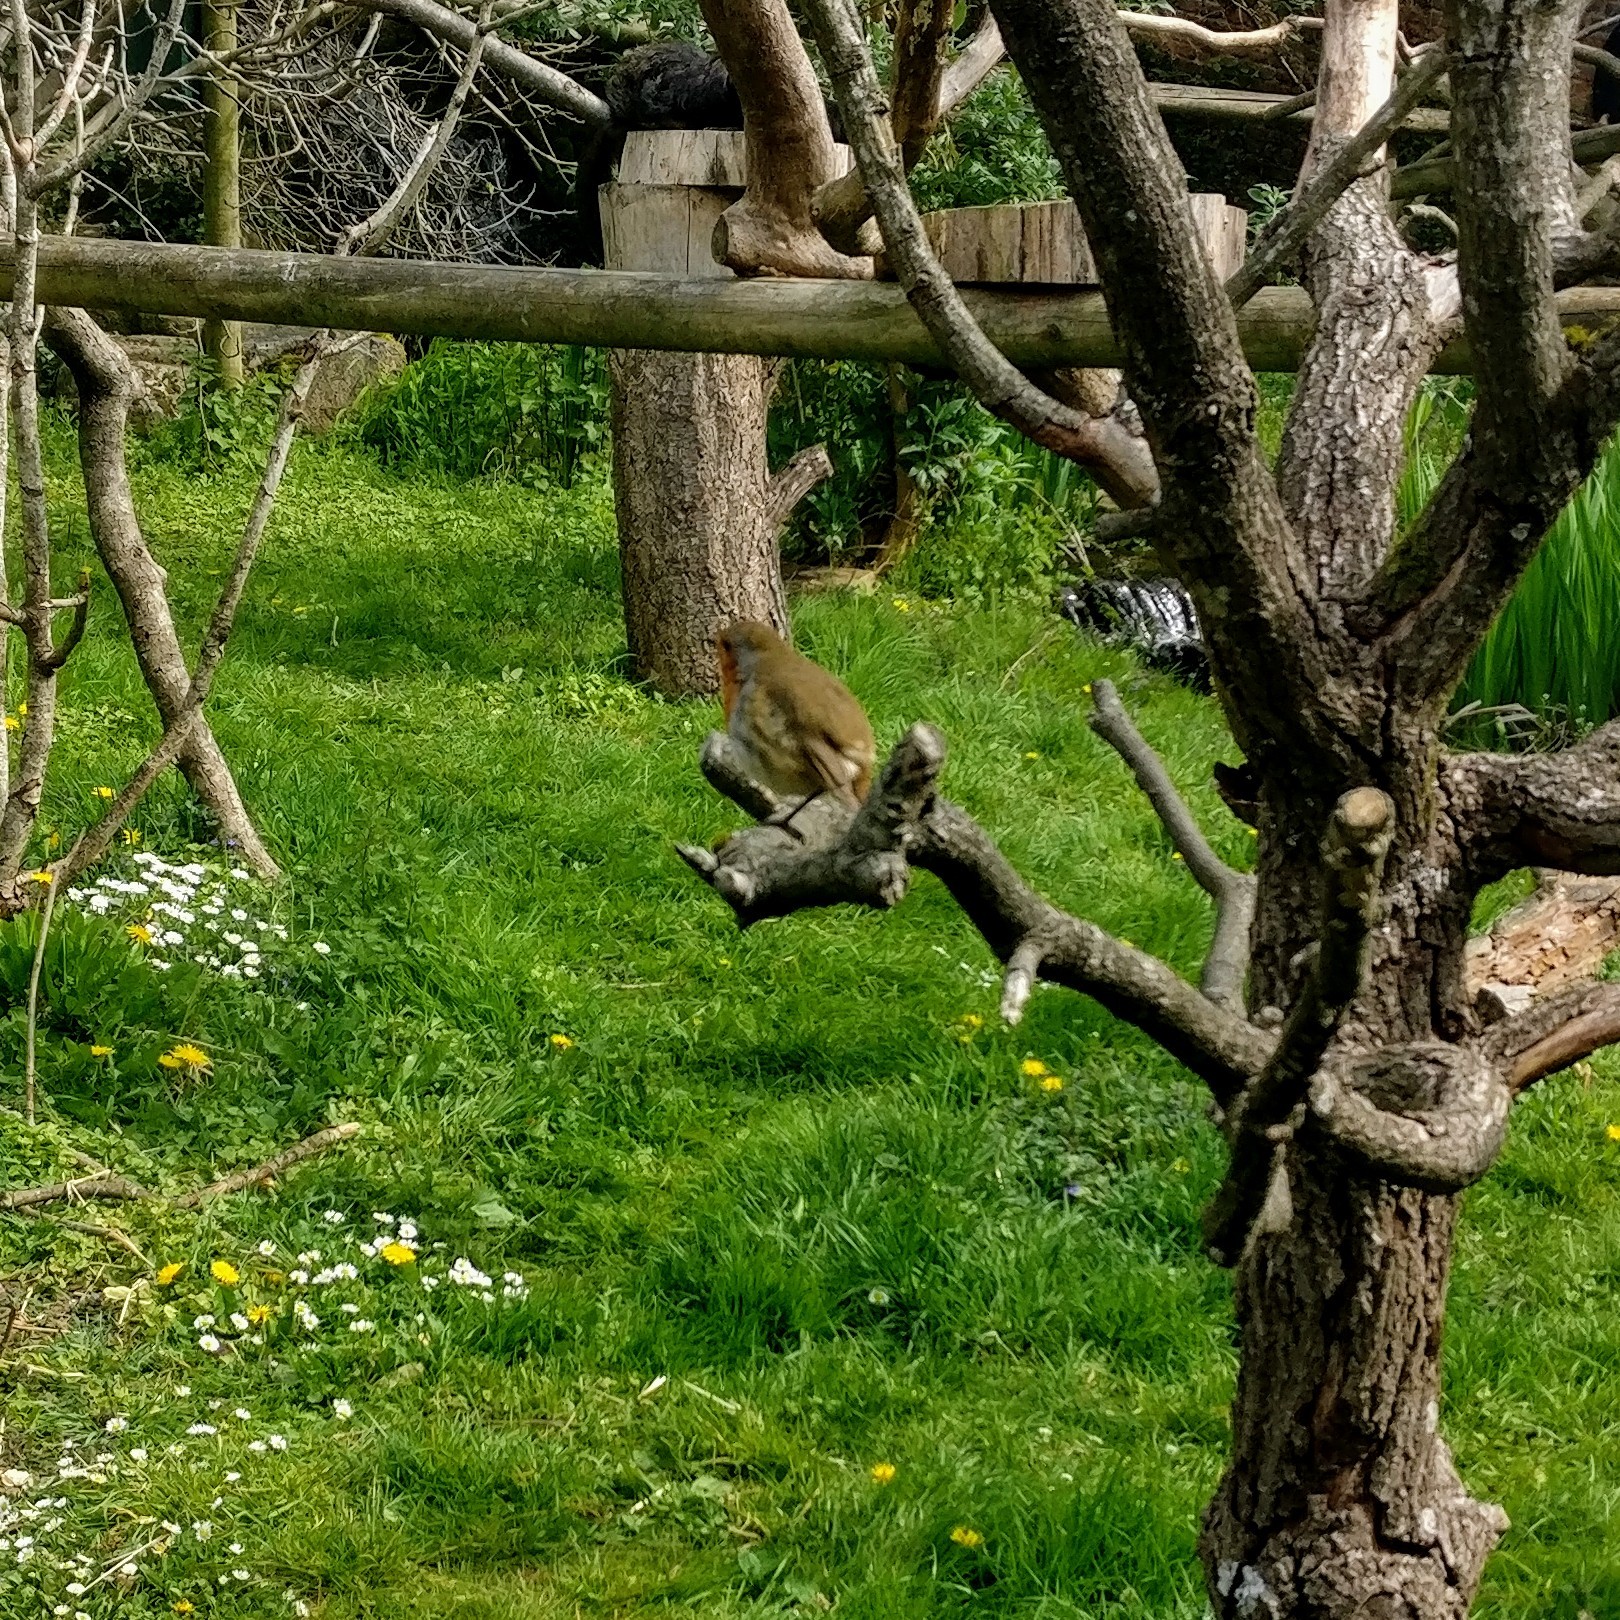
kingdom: Animalia
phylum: Chordata
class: Aves
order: Passeriformes
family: Muscicapidae
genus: Erithacus
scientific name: Erithacus rubecula
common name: European robin
